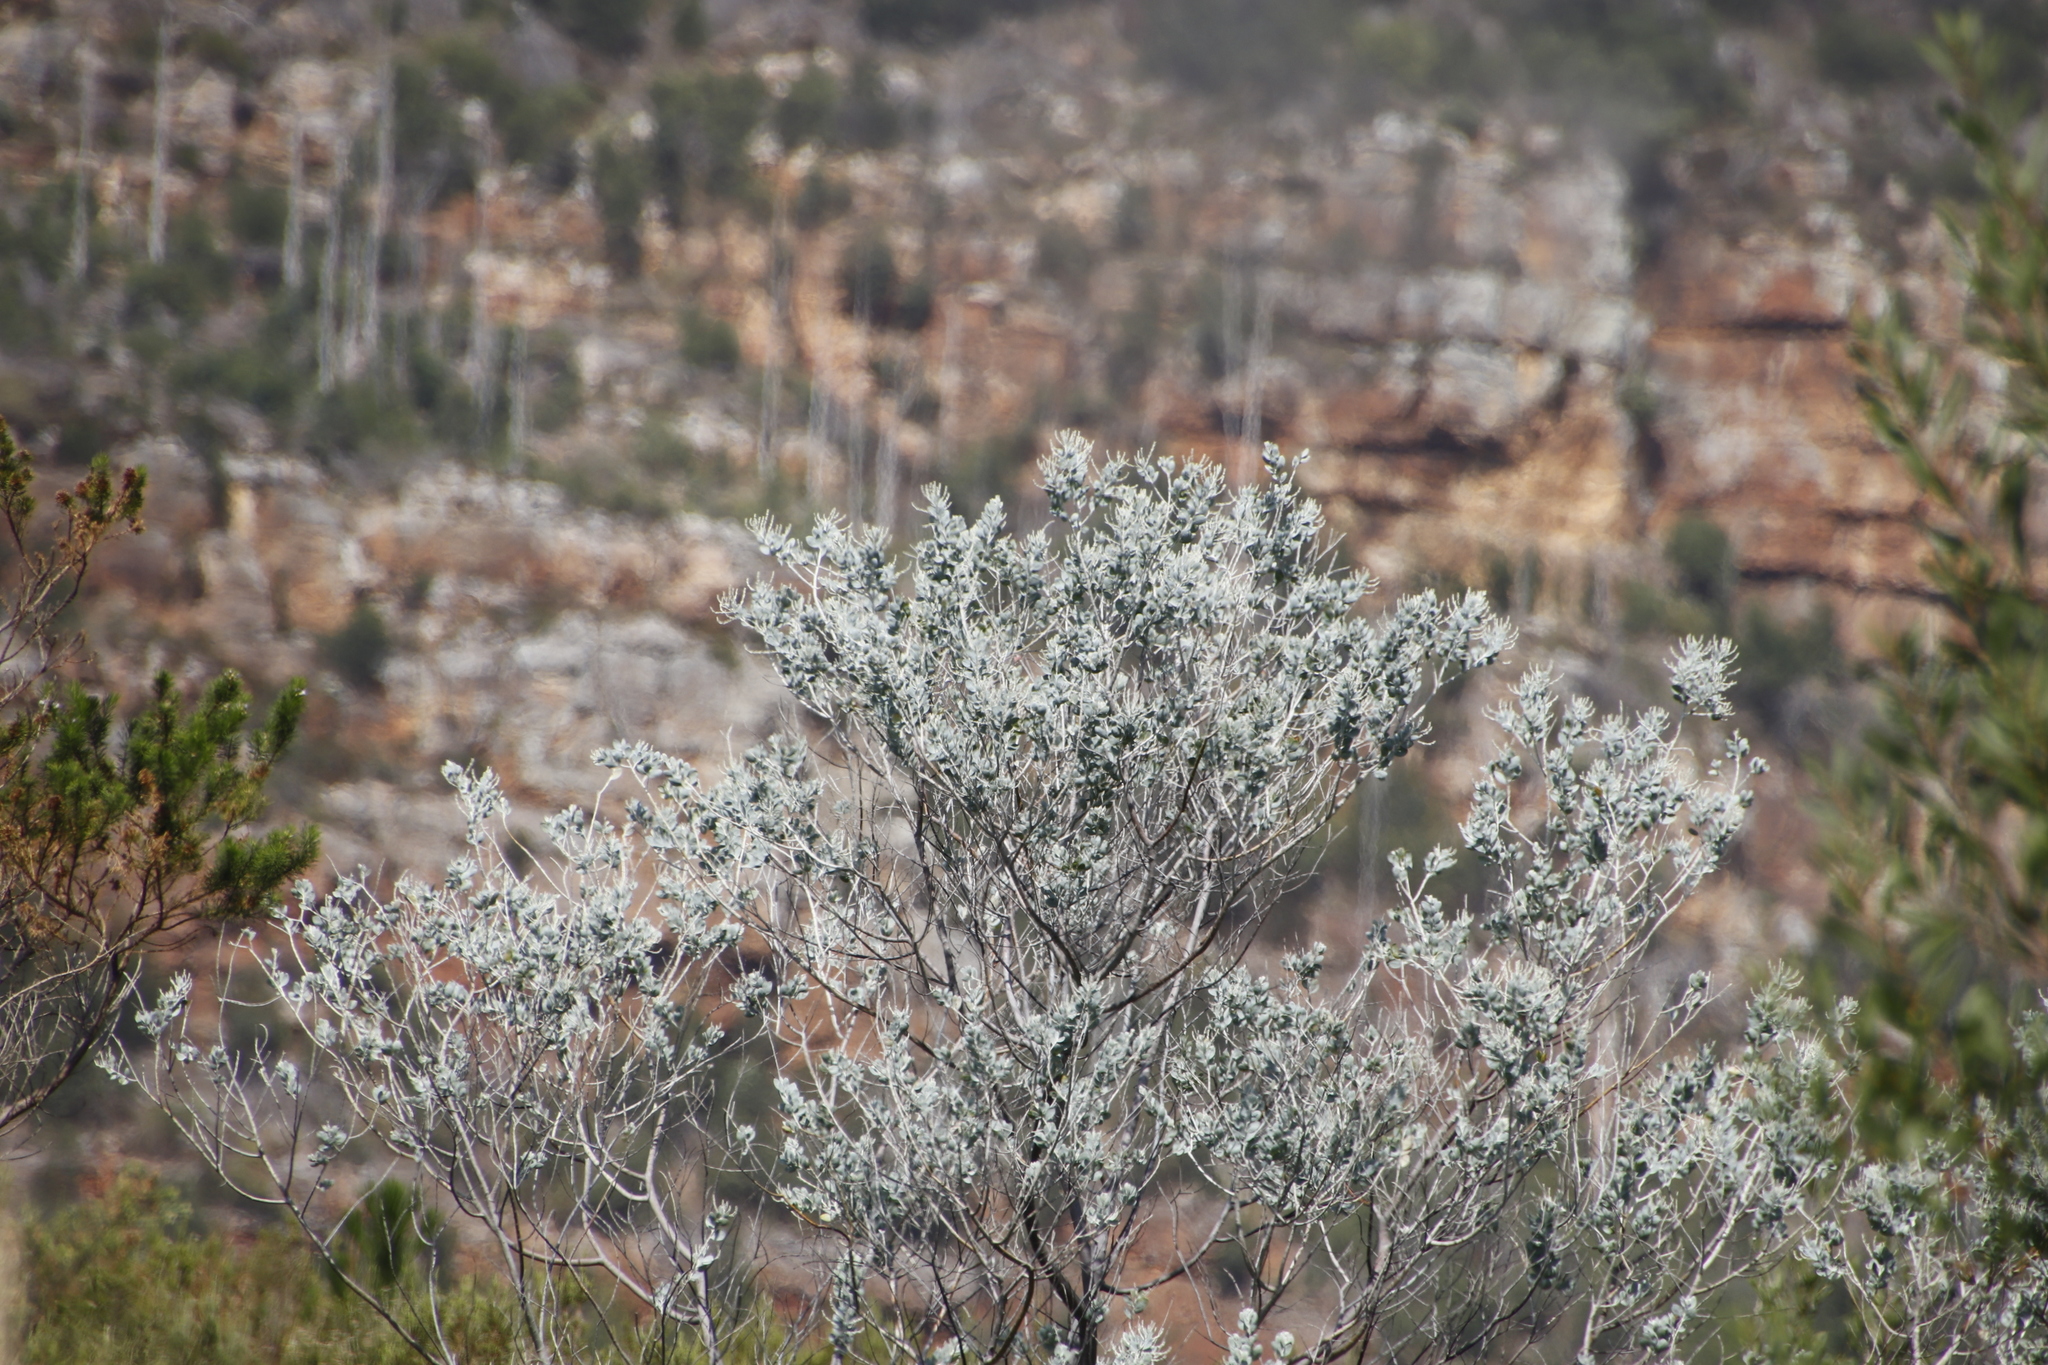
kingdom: Plantae
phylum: Tracheophyta
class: Magnoliopsida
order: Fabales
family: Fabaceae
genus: Acacia
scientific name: Acacia podalyriifolia
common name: Pearl wattle
